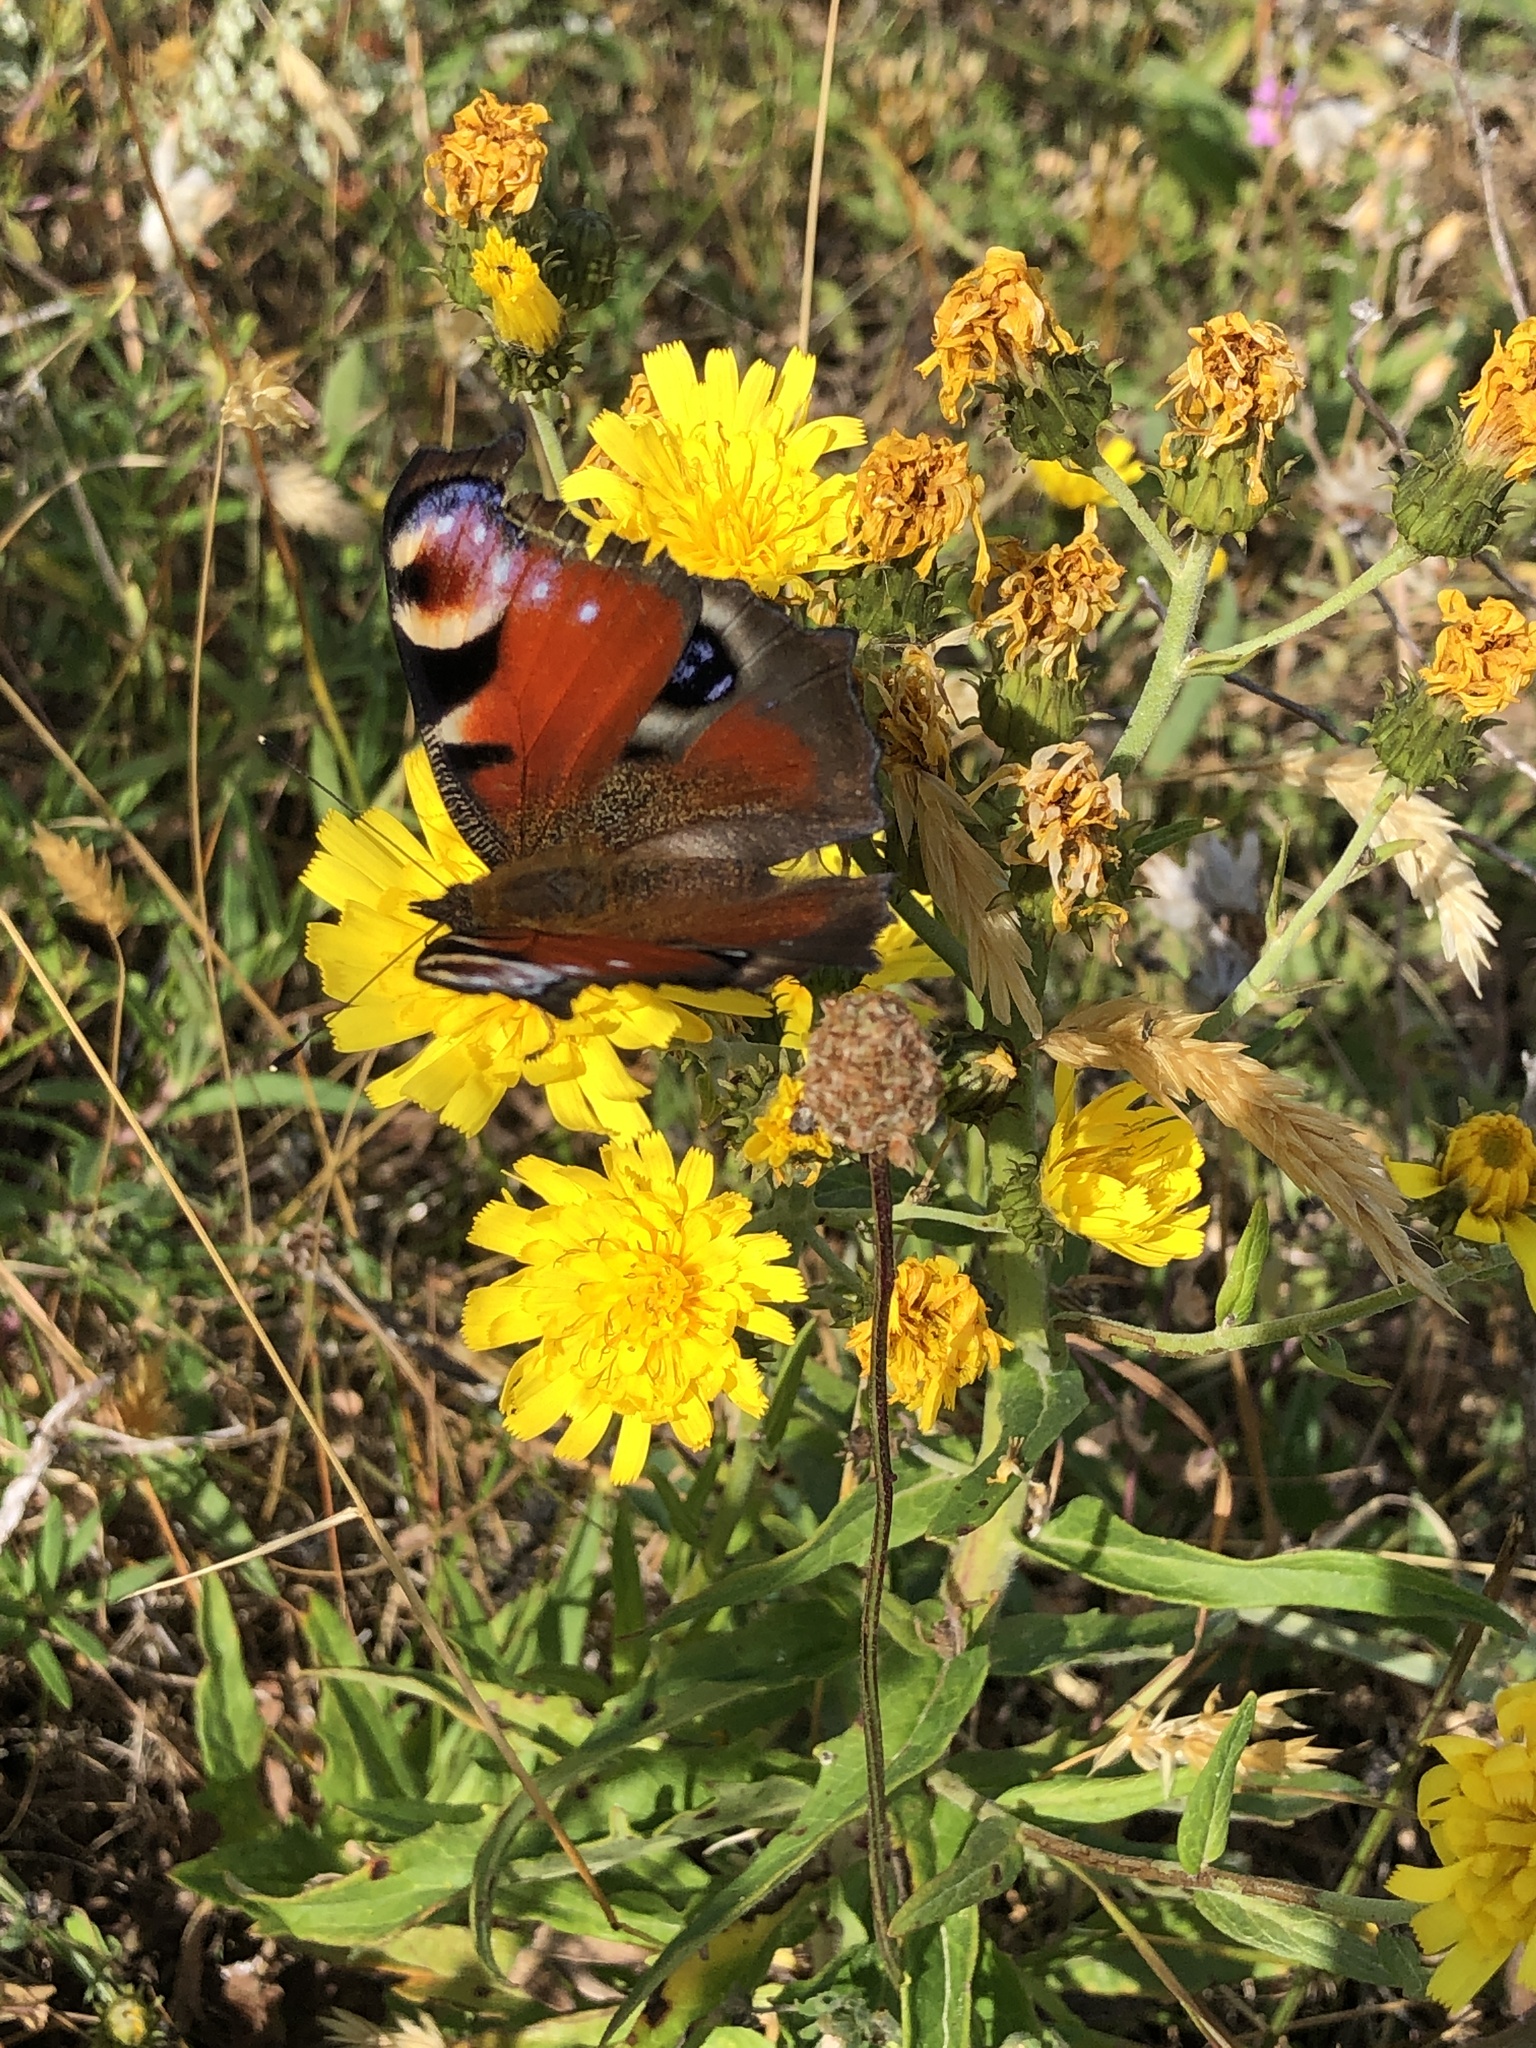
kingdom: Animalia
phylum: Arthropoda
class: Insecta
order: Lepidoptera
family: Nymphalidae
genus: Aglais
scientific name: Aglais io
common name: Peacock
